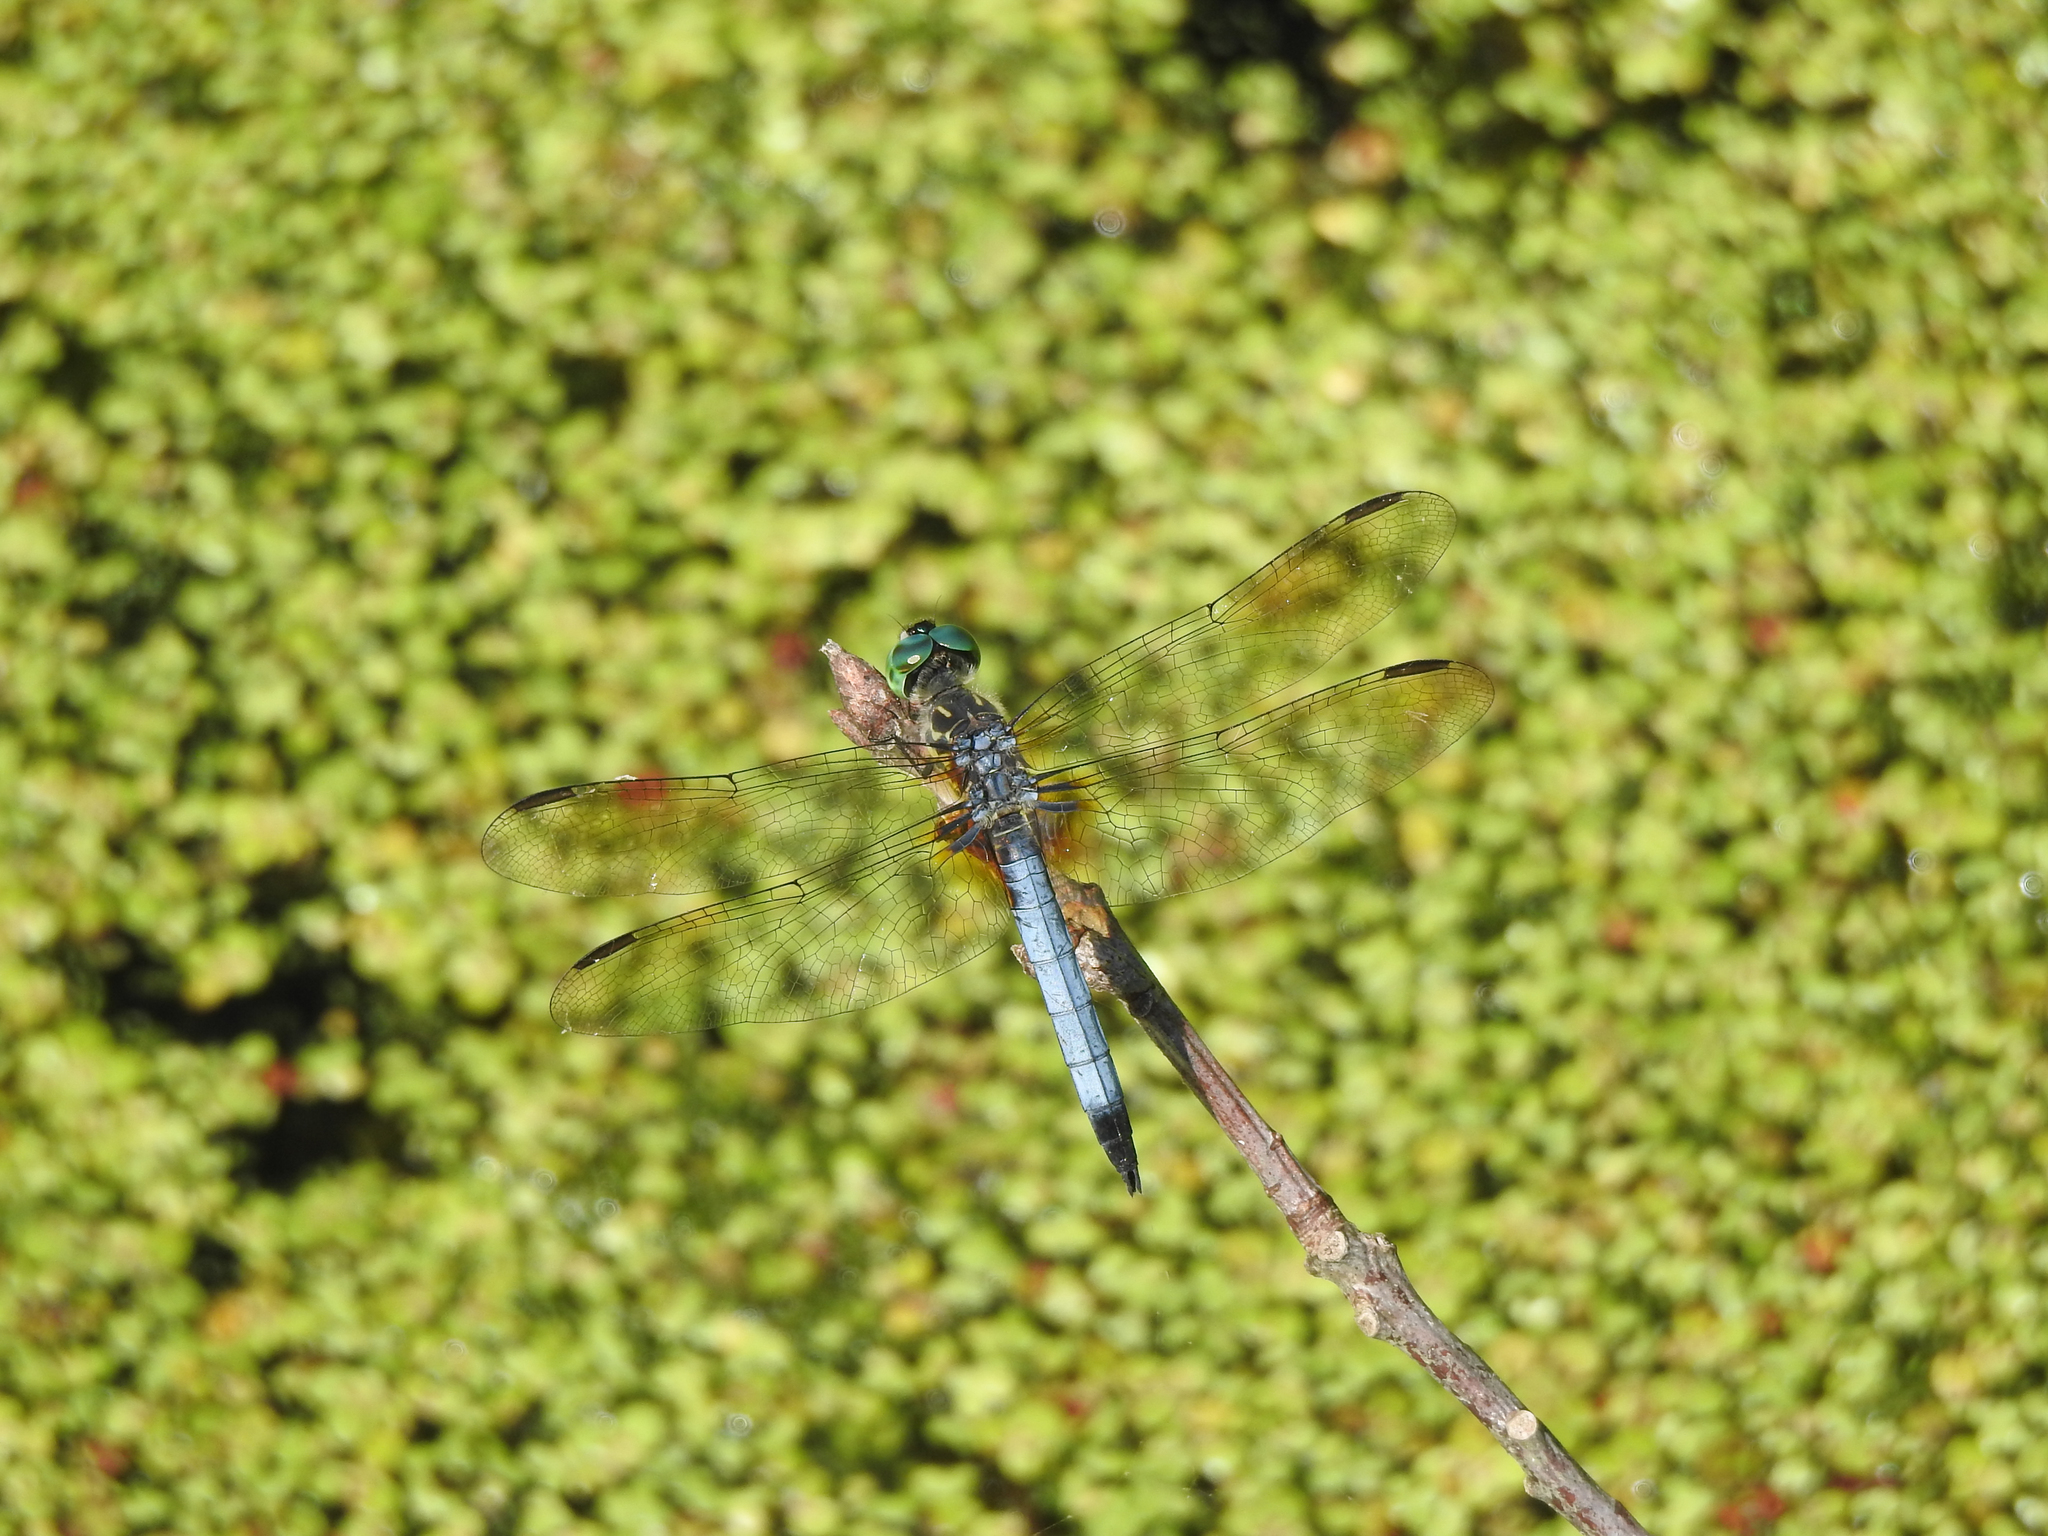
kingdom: Animalia
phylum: Arthropoda
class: Insecta
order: Odonata
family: Libellulidae
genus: Pachydiplax
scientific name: Pachydiplax longipennis
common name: Blue dasher
